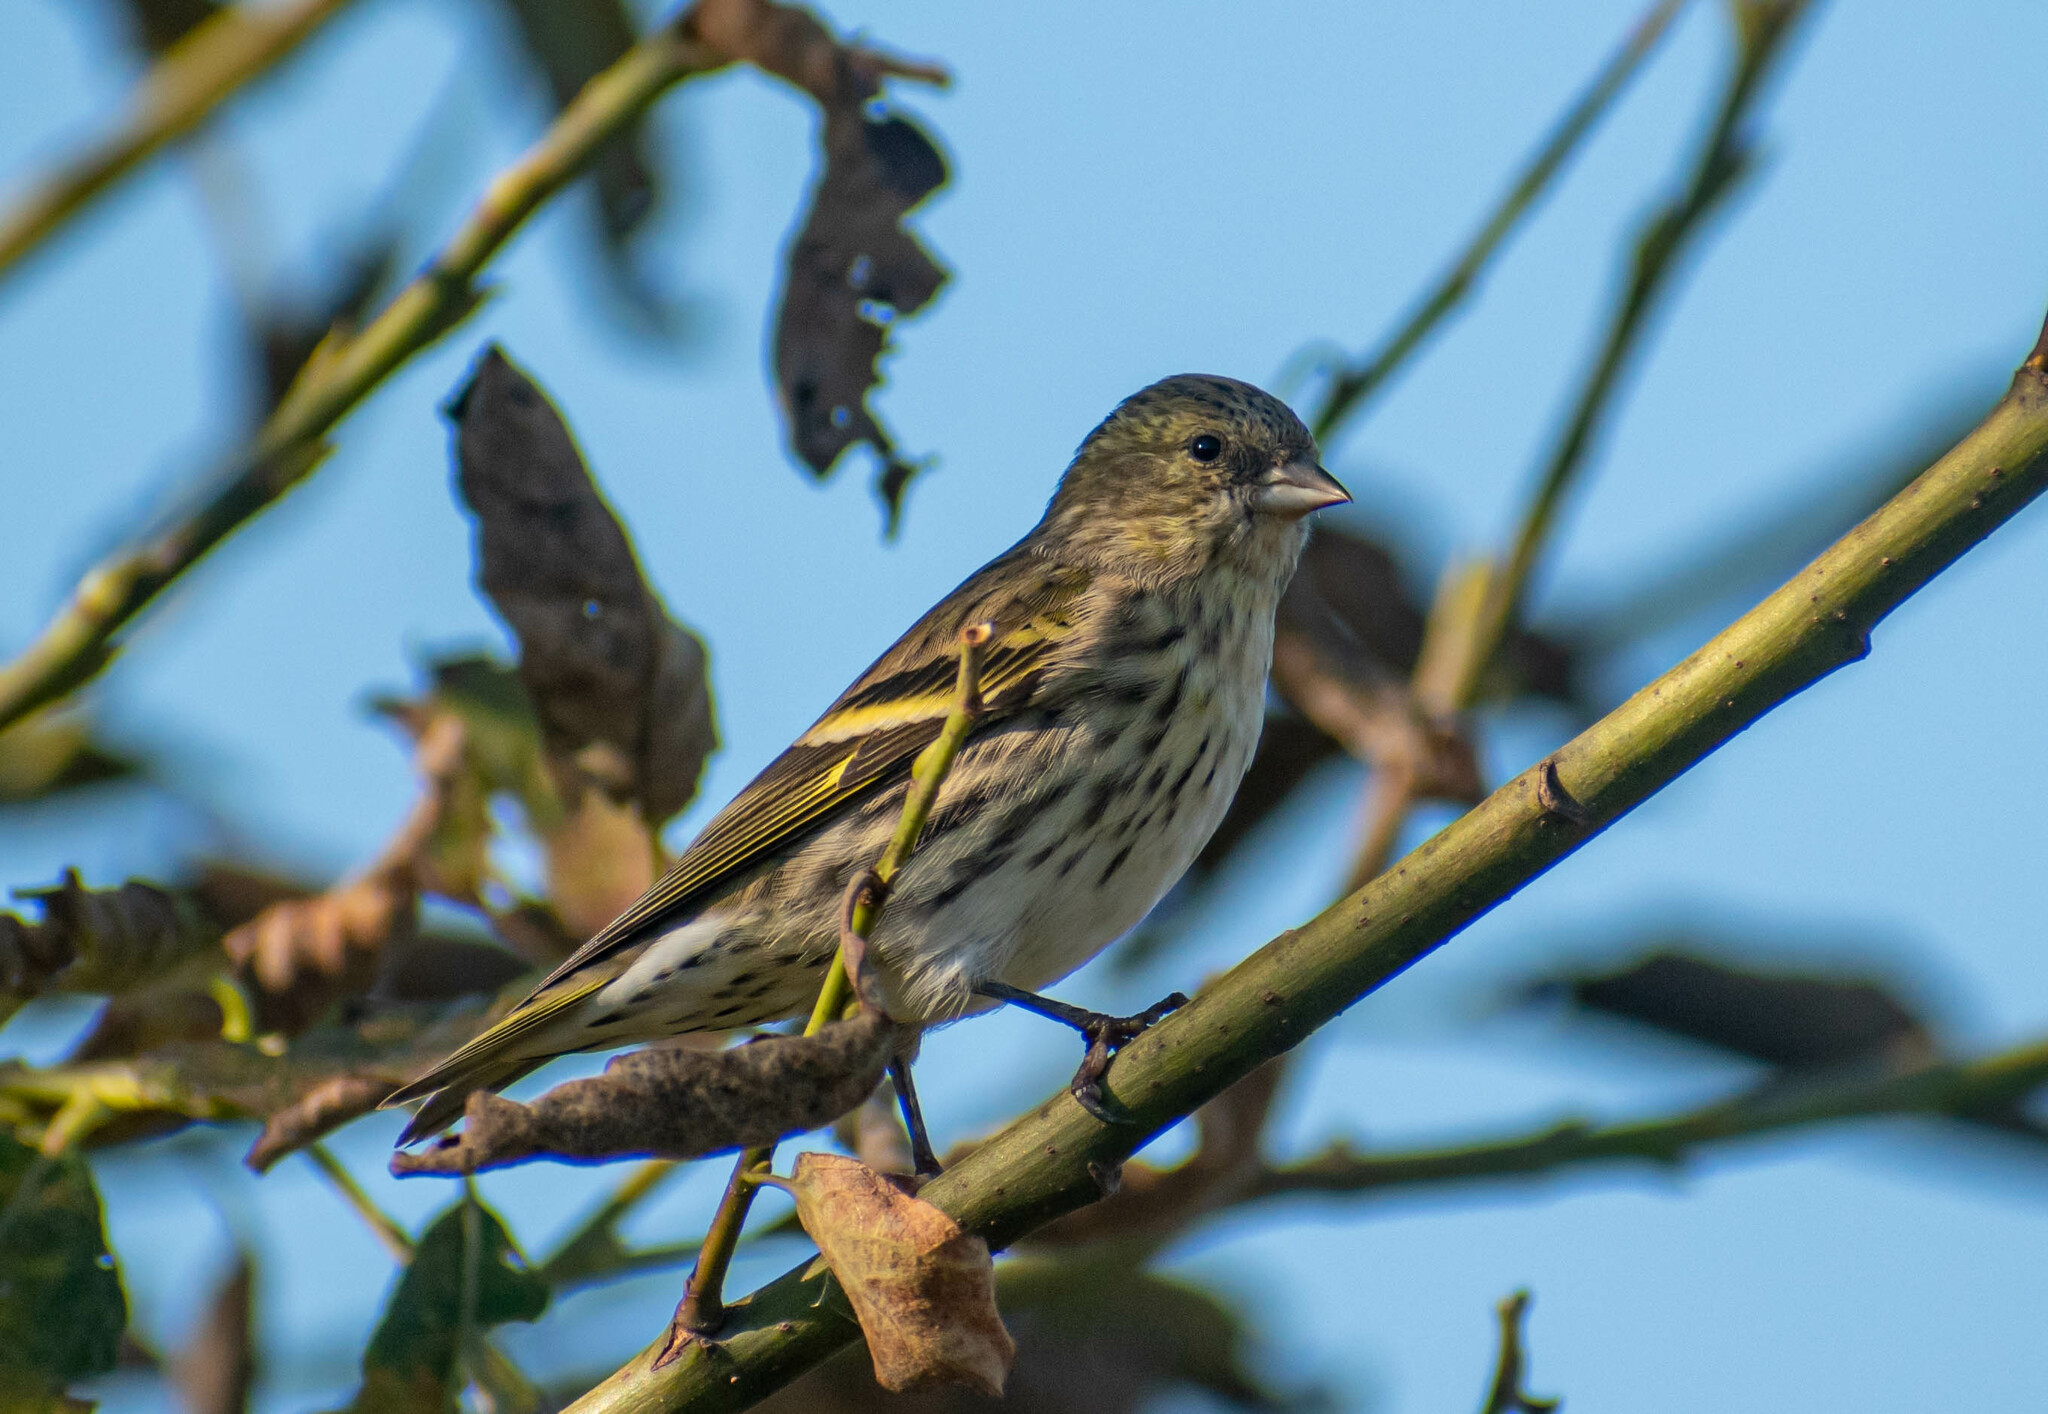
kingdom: Animalia
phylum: Chordata
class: Aves
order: Passeriformes
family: Fringillidae
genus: Spinus
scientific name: Spinus spinus
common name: Eurasian siskin
